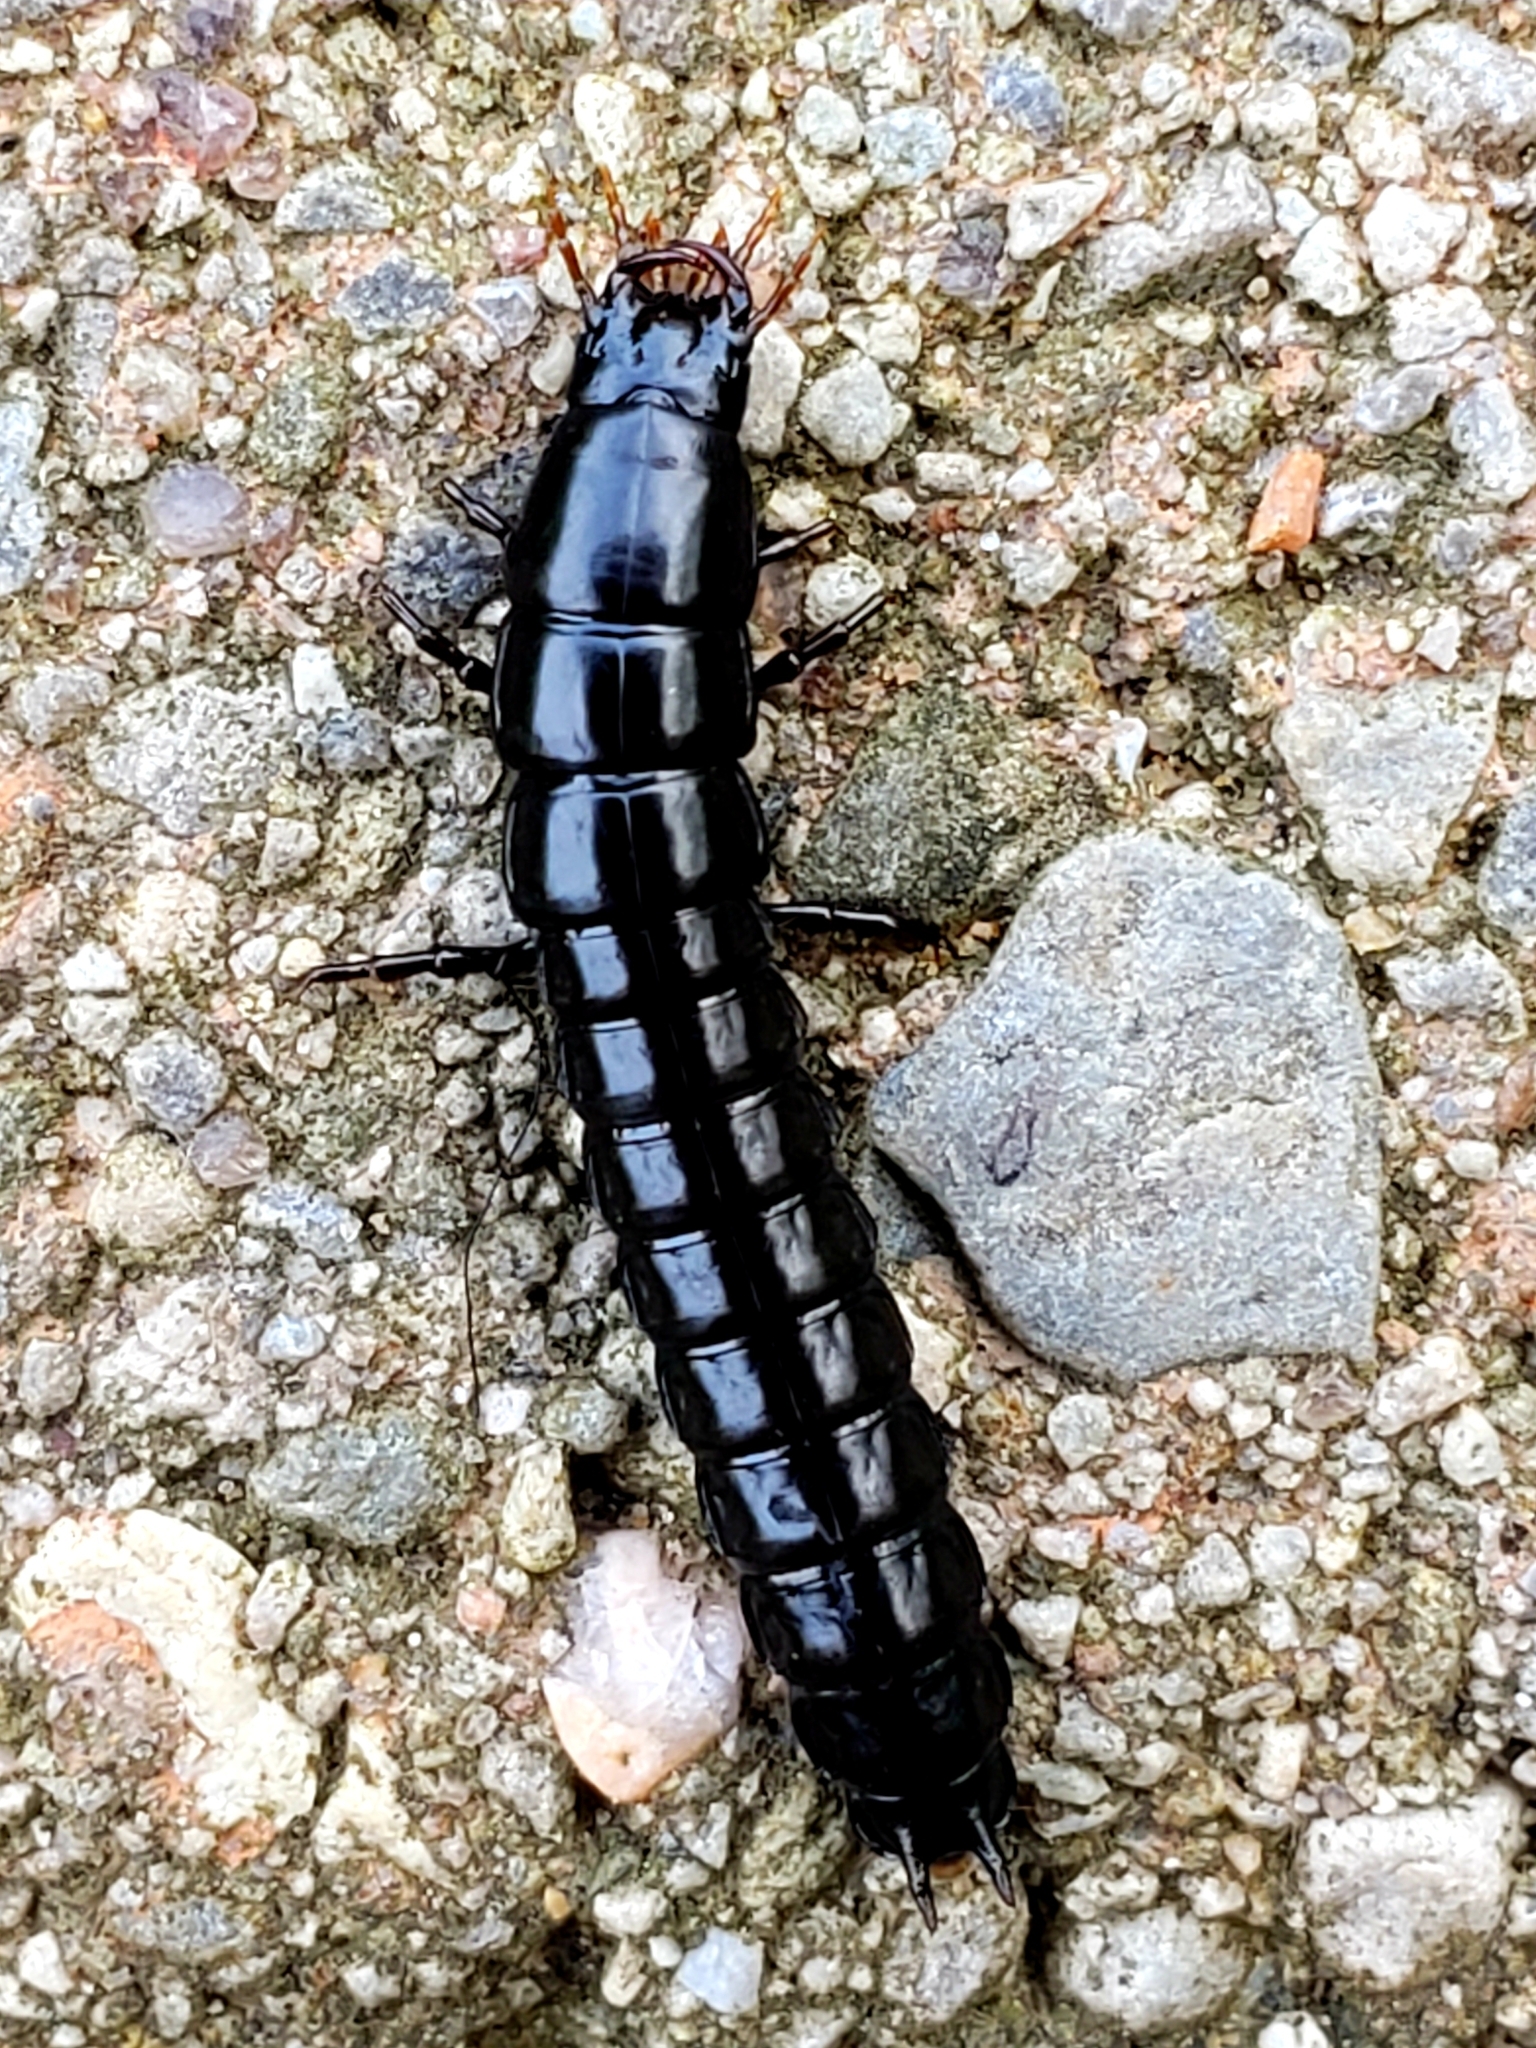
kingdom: Animalia
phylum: Arthropoda
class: Insecta
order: Coleoptera
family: Carabidae
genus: Carabus
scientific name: Carabus
